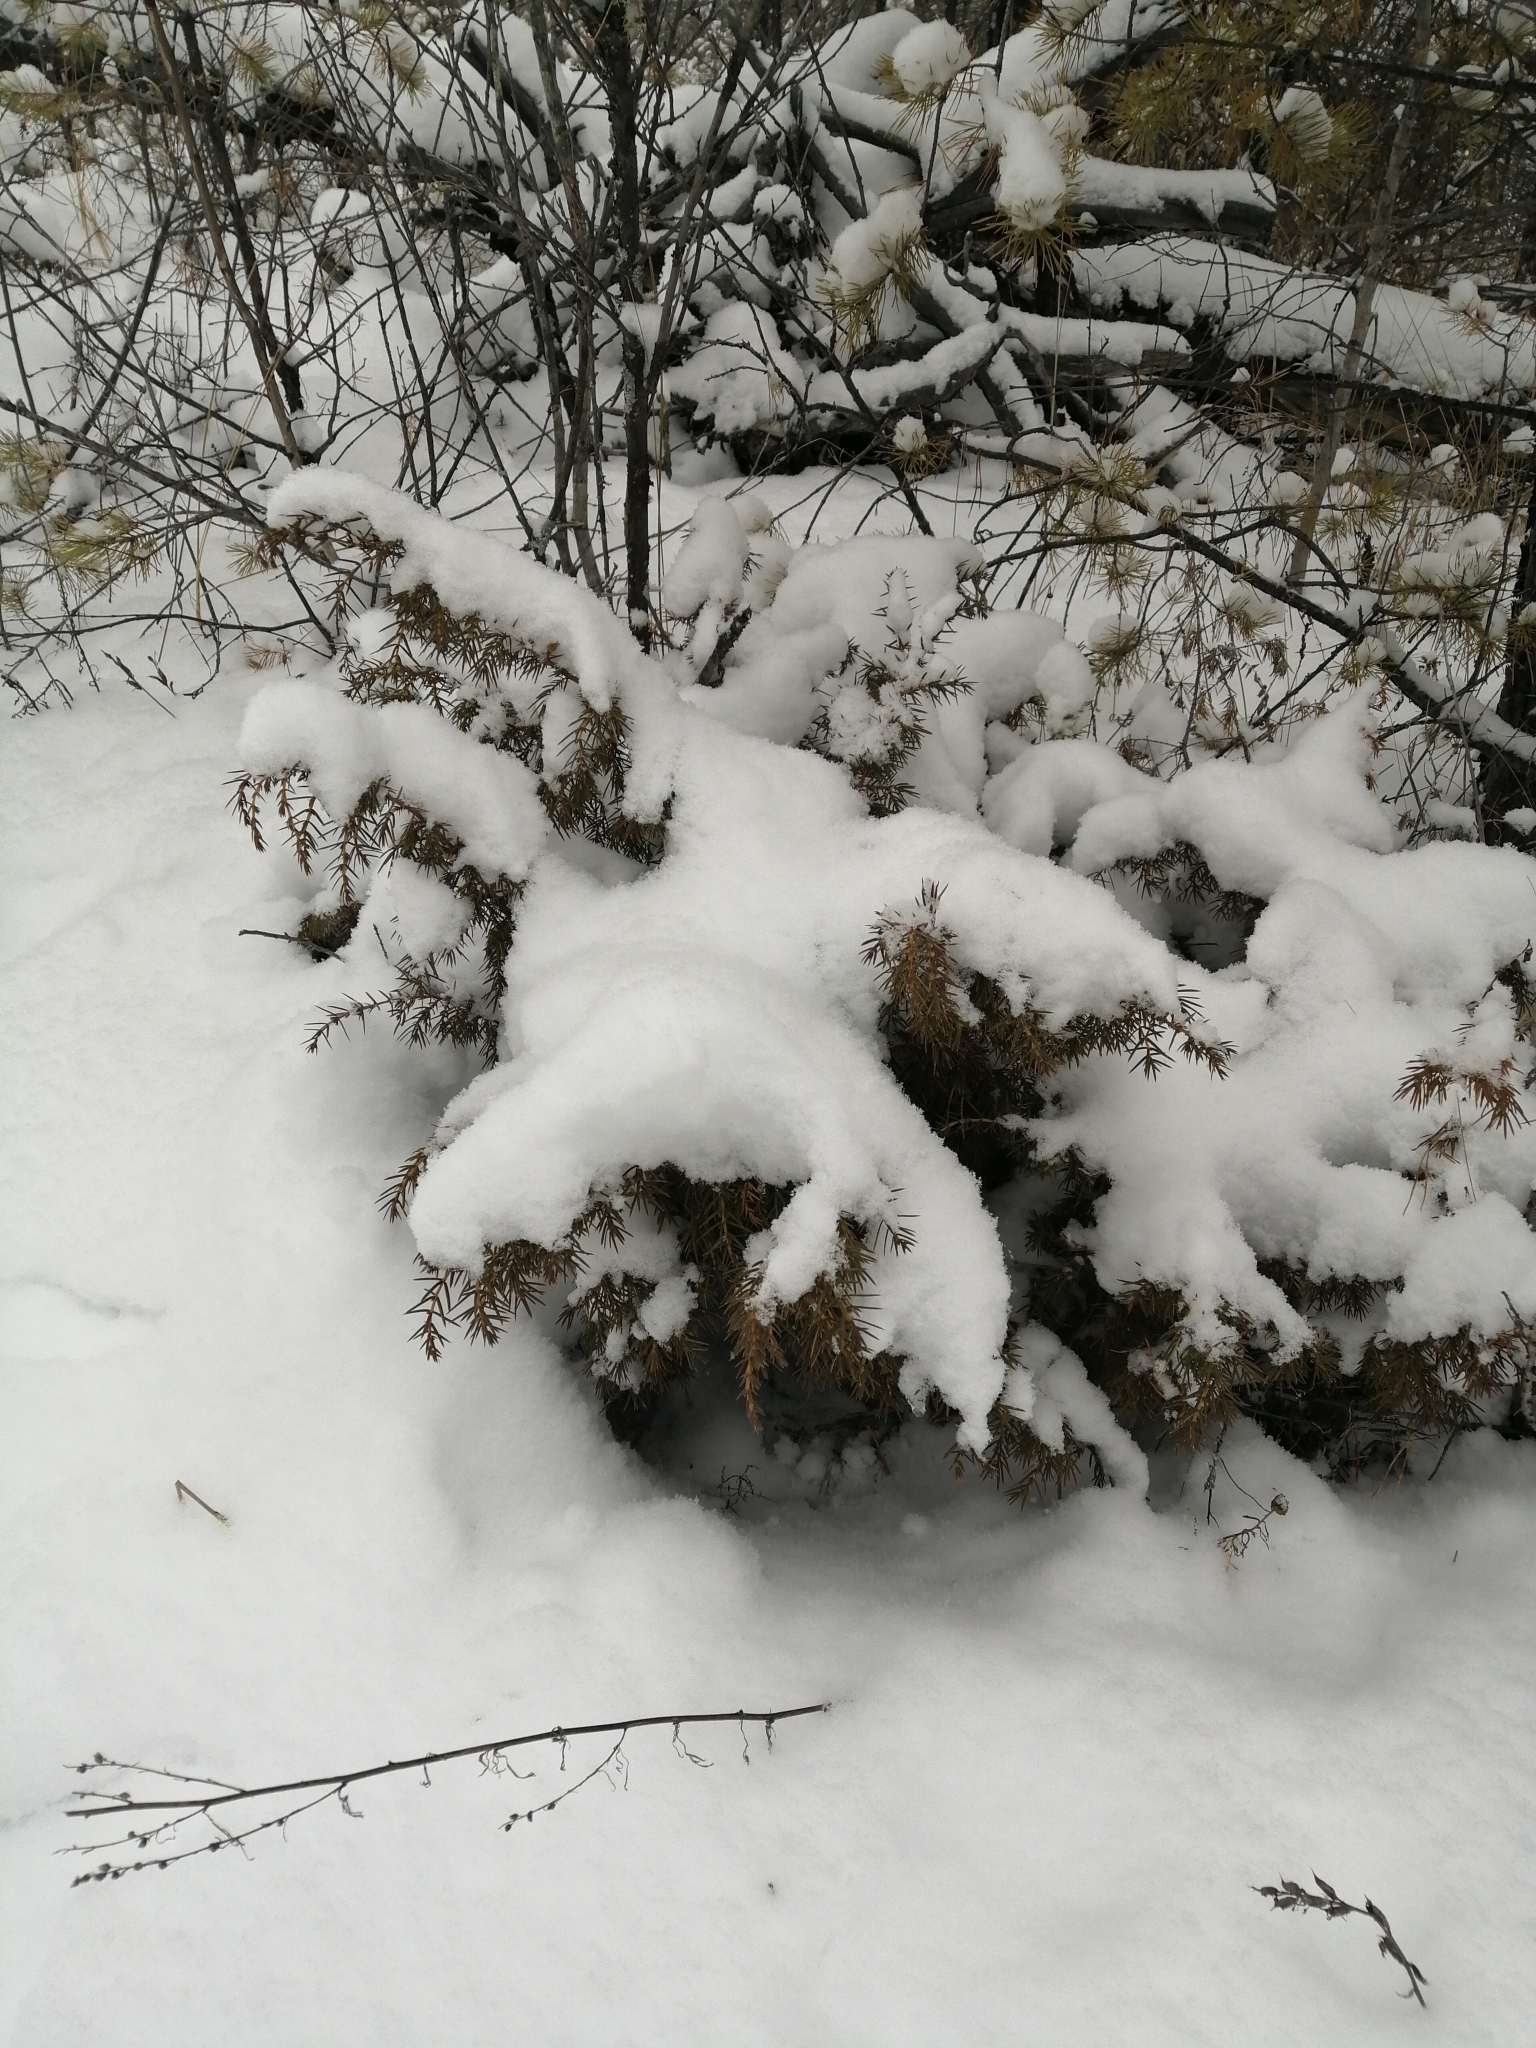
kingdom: Plantae
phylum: Tracheophyta
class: Pinopsida
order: Pinales
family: Cupressaceae
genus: Juniperus
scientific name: Juniperus communis
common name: Common juniper
